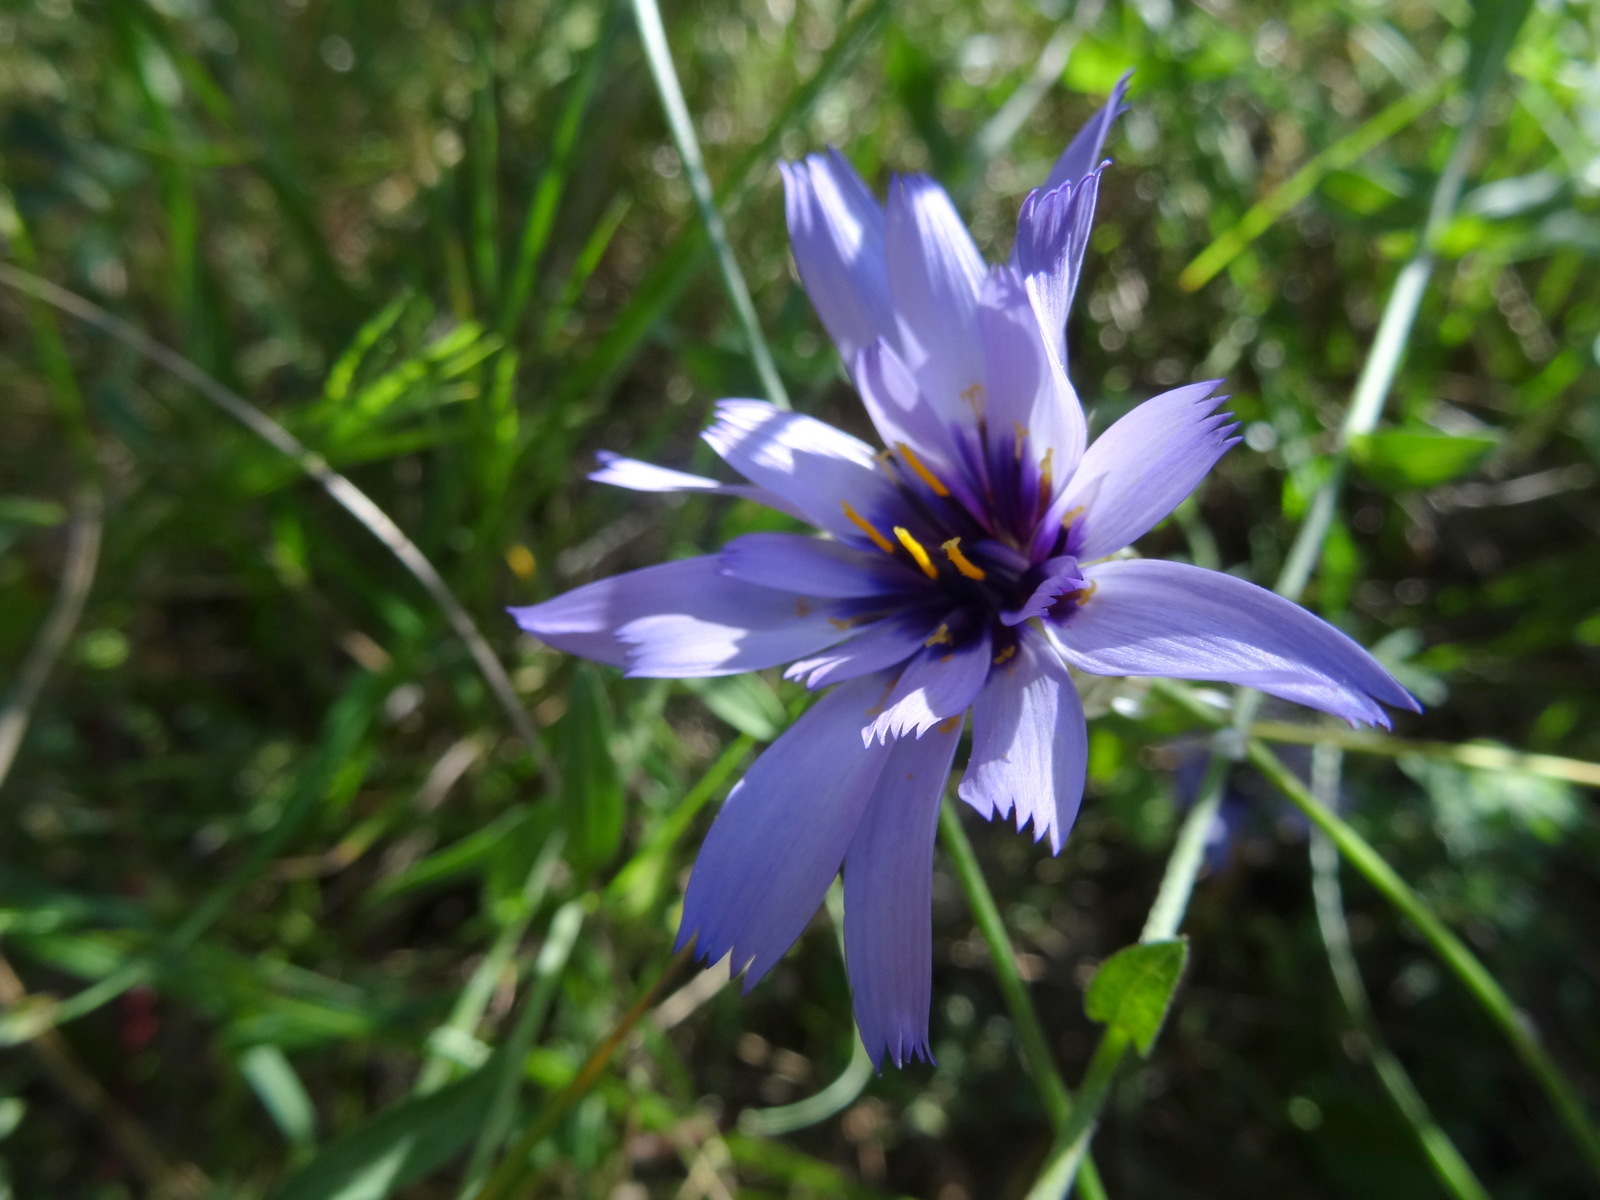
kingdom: Plantae
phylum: Tracheophyta
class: Magnoliopsida
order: Asterales
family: Asteraceae
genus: Catananche
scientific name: Catananche caerulea
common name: Blue cupidone
